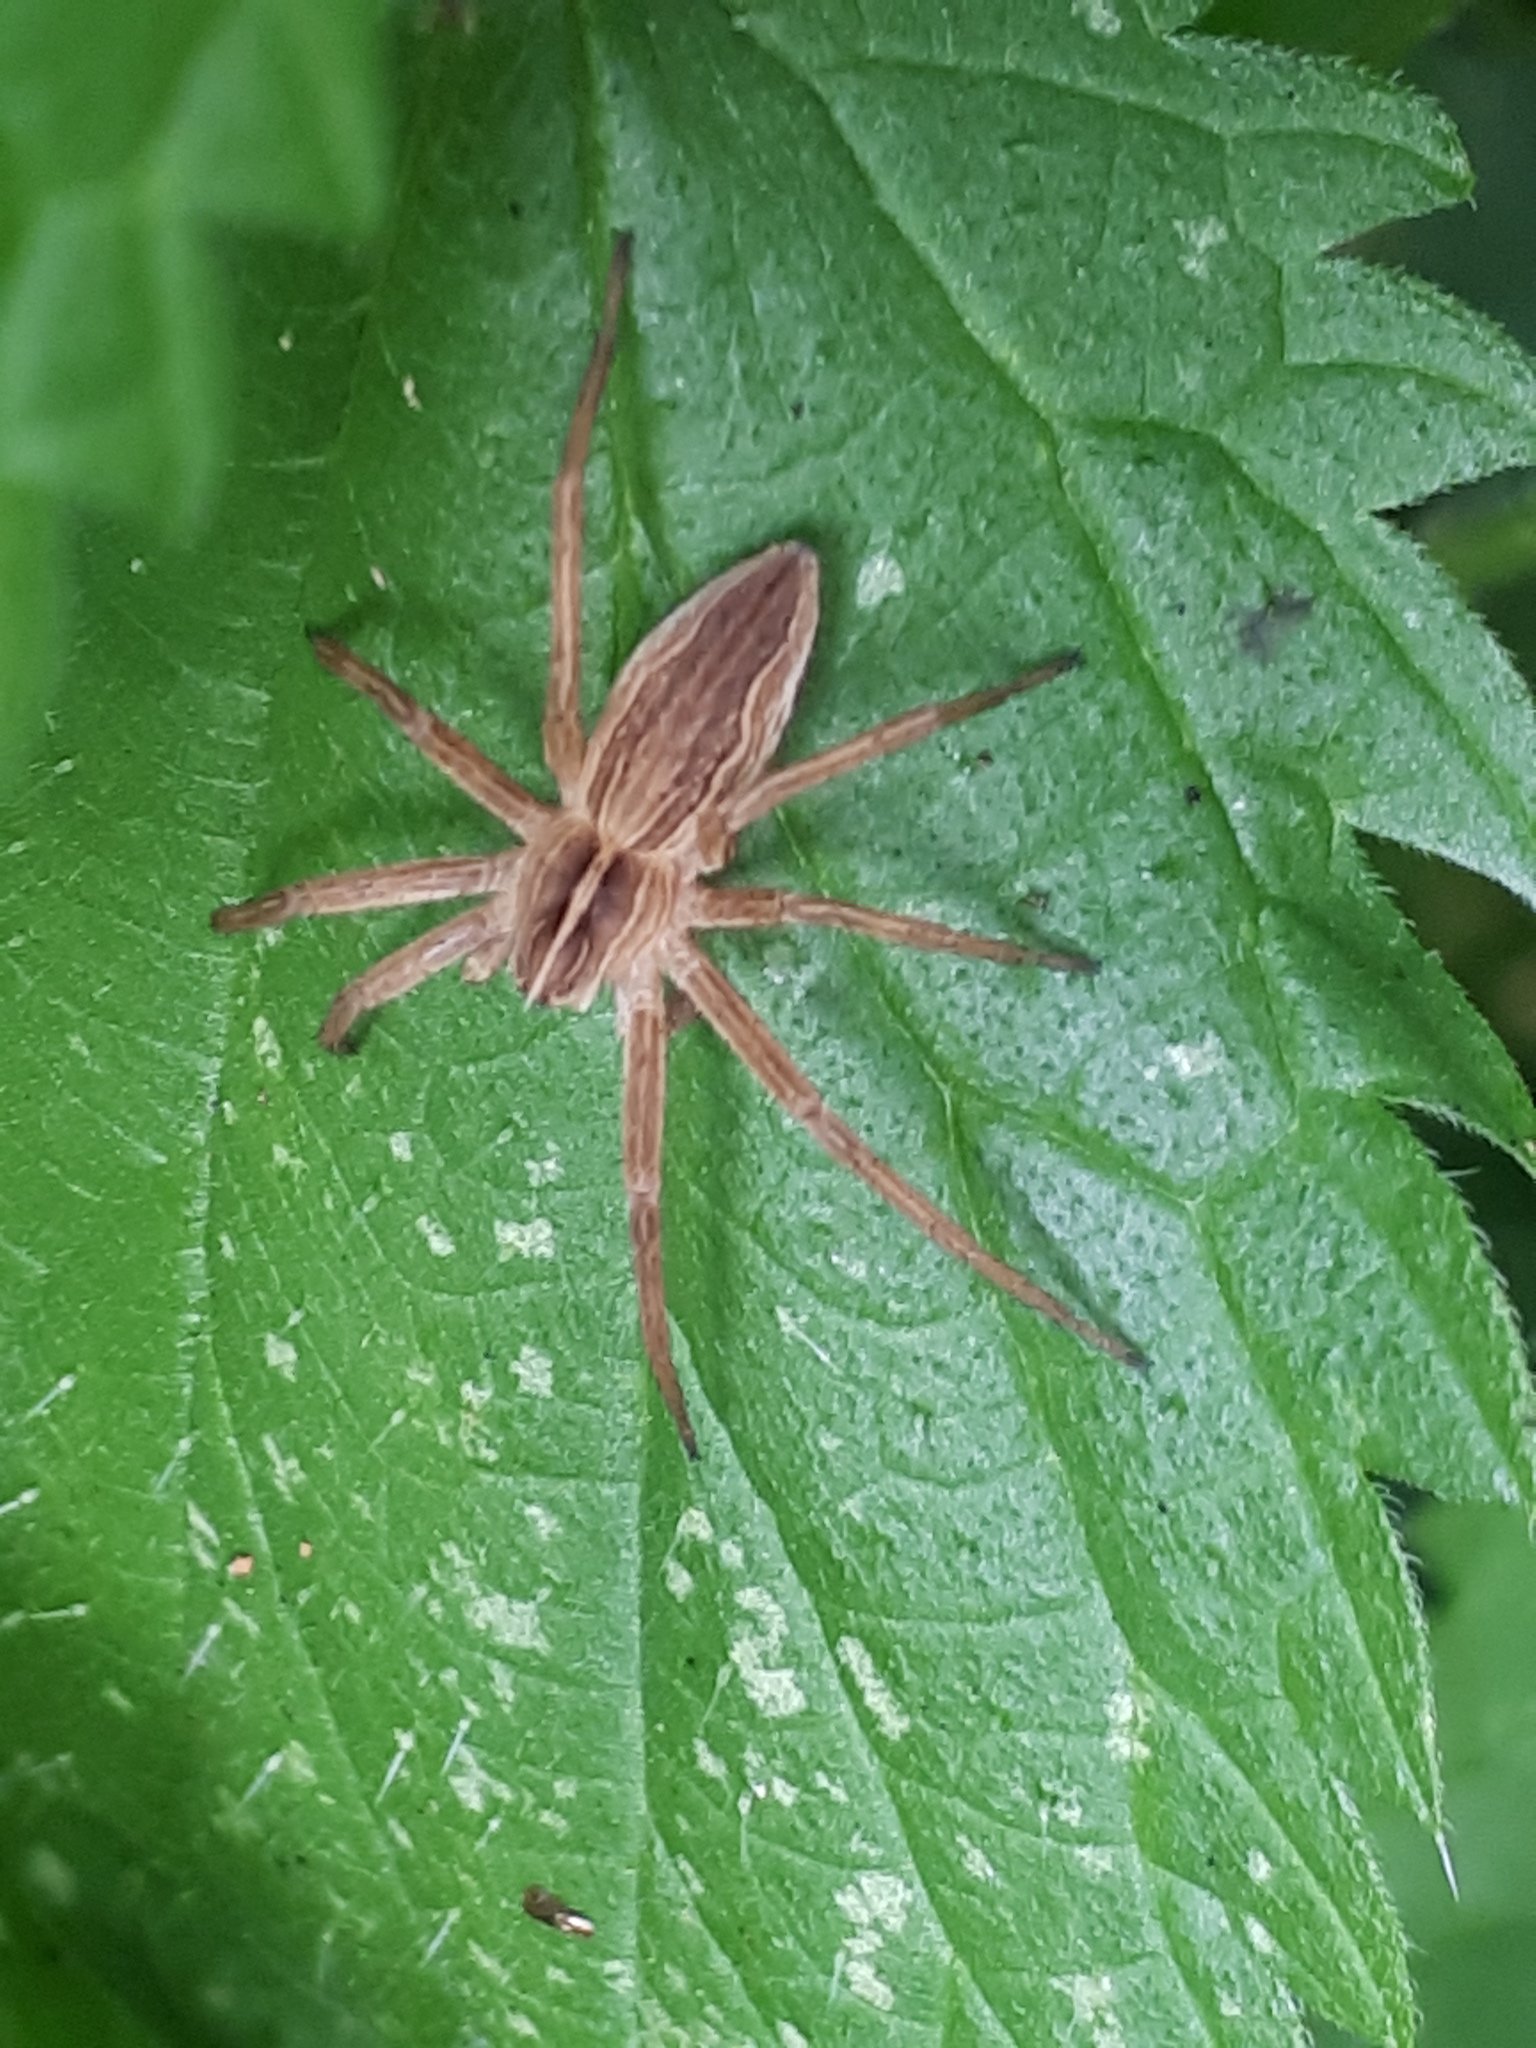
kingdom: Animalia
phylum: Arthropoda
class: Arachnida
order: Araneae
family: Pisauridae
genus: Pisaura
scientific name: Pisaura mirabilis
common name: Tent spider
